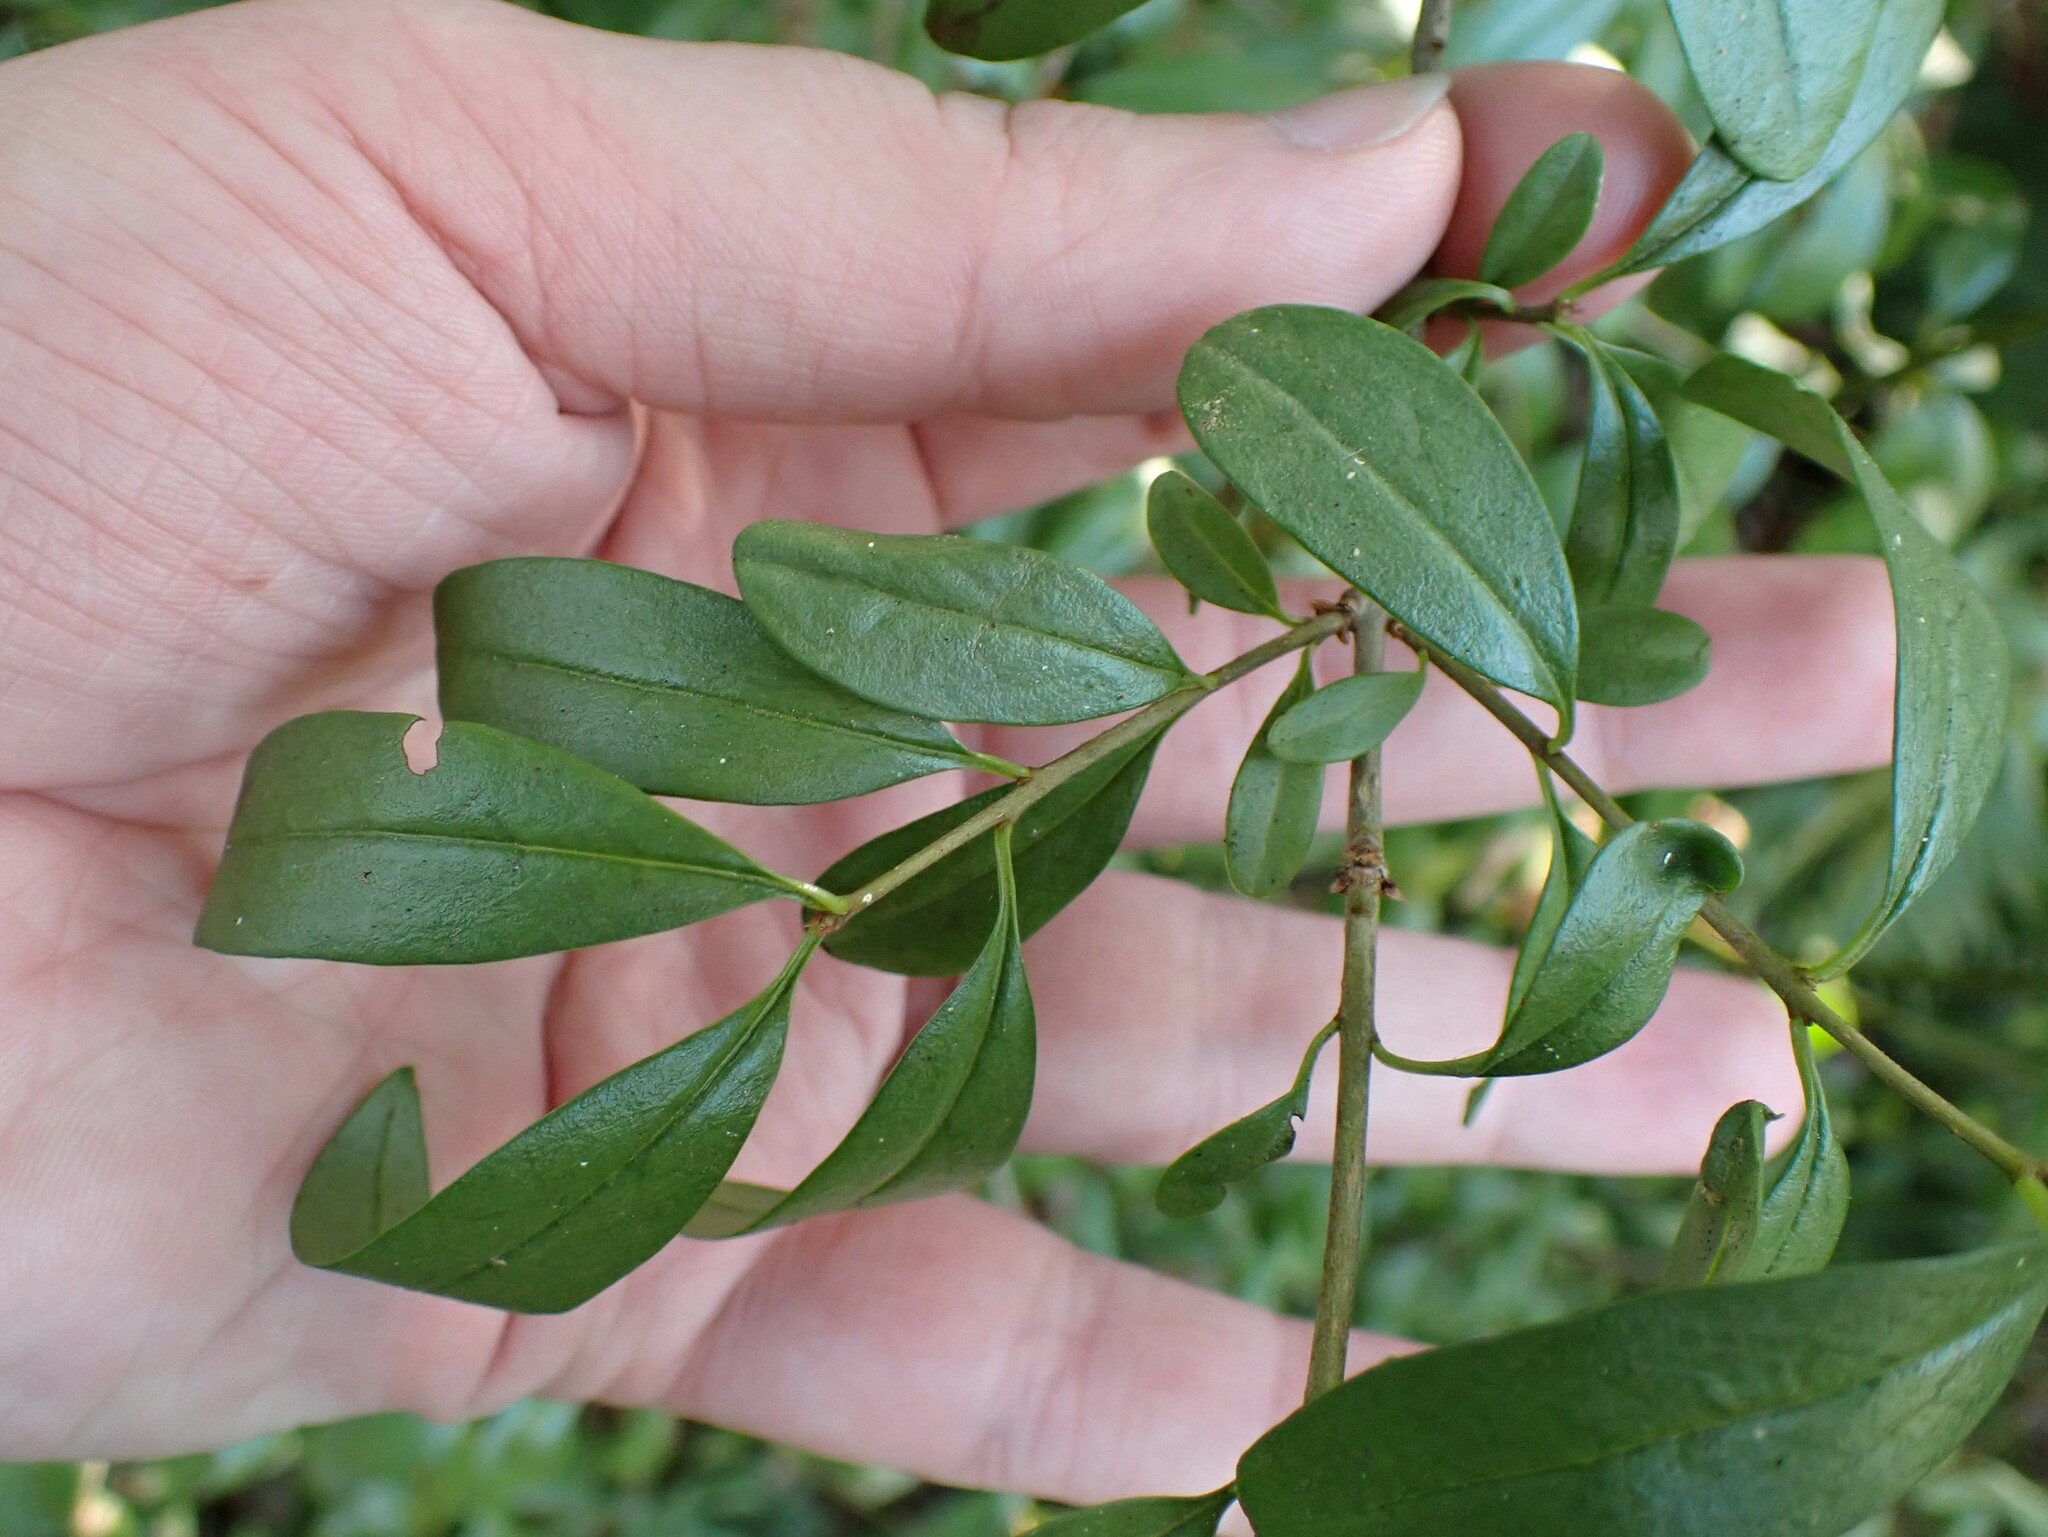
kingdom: Plantae
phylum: Tracheophyta
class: Magnoliopsida
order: Lamiales
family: Oleaceae
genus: Ligustrum
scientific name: Ligustrum vulgare
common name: Wild privet
